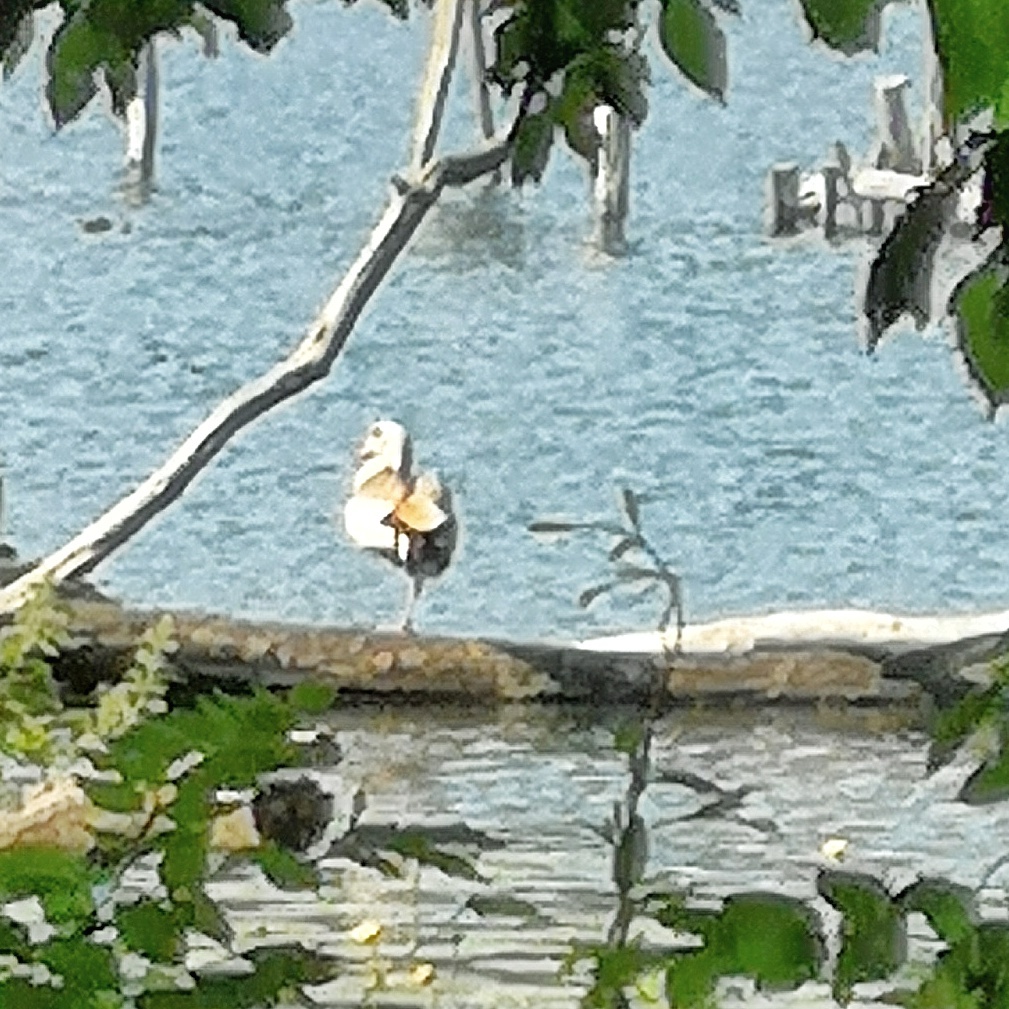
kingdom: Animalia
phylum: Chordata
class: Aves
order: Anseriformes
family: Anatidae
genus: Alopochen
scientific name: Alopochen aegyptiaca
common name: Egyptian goose
